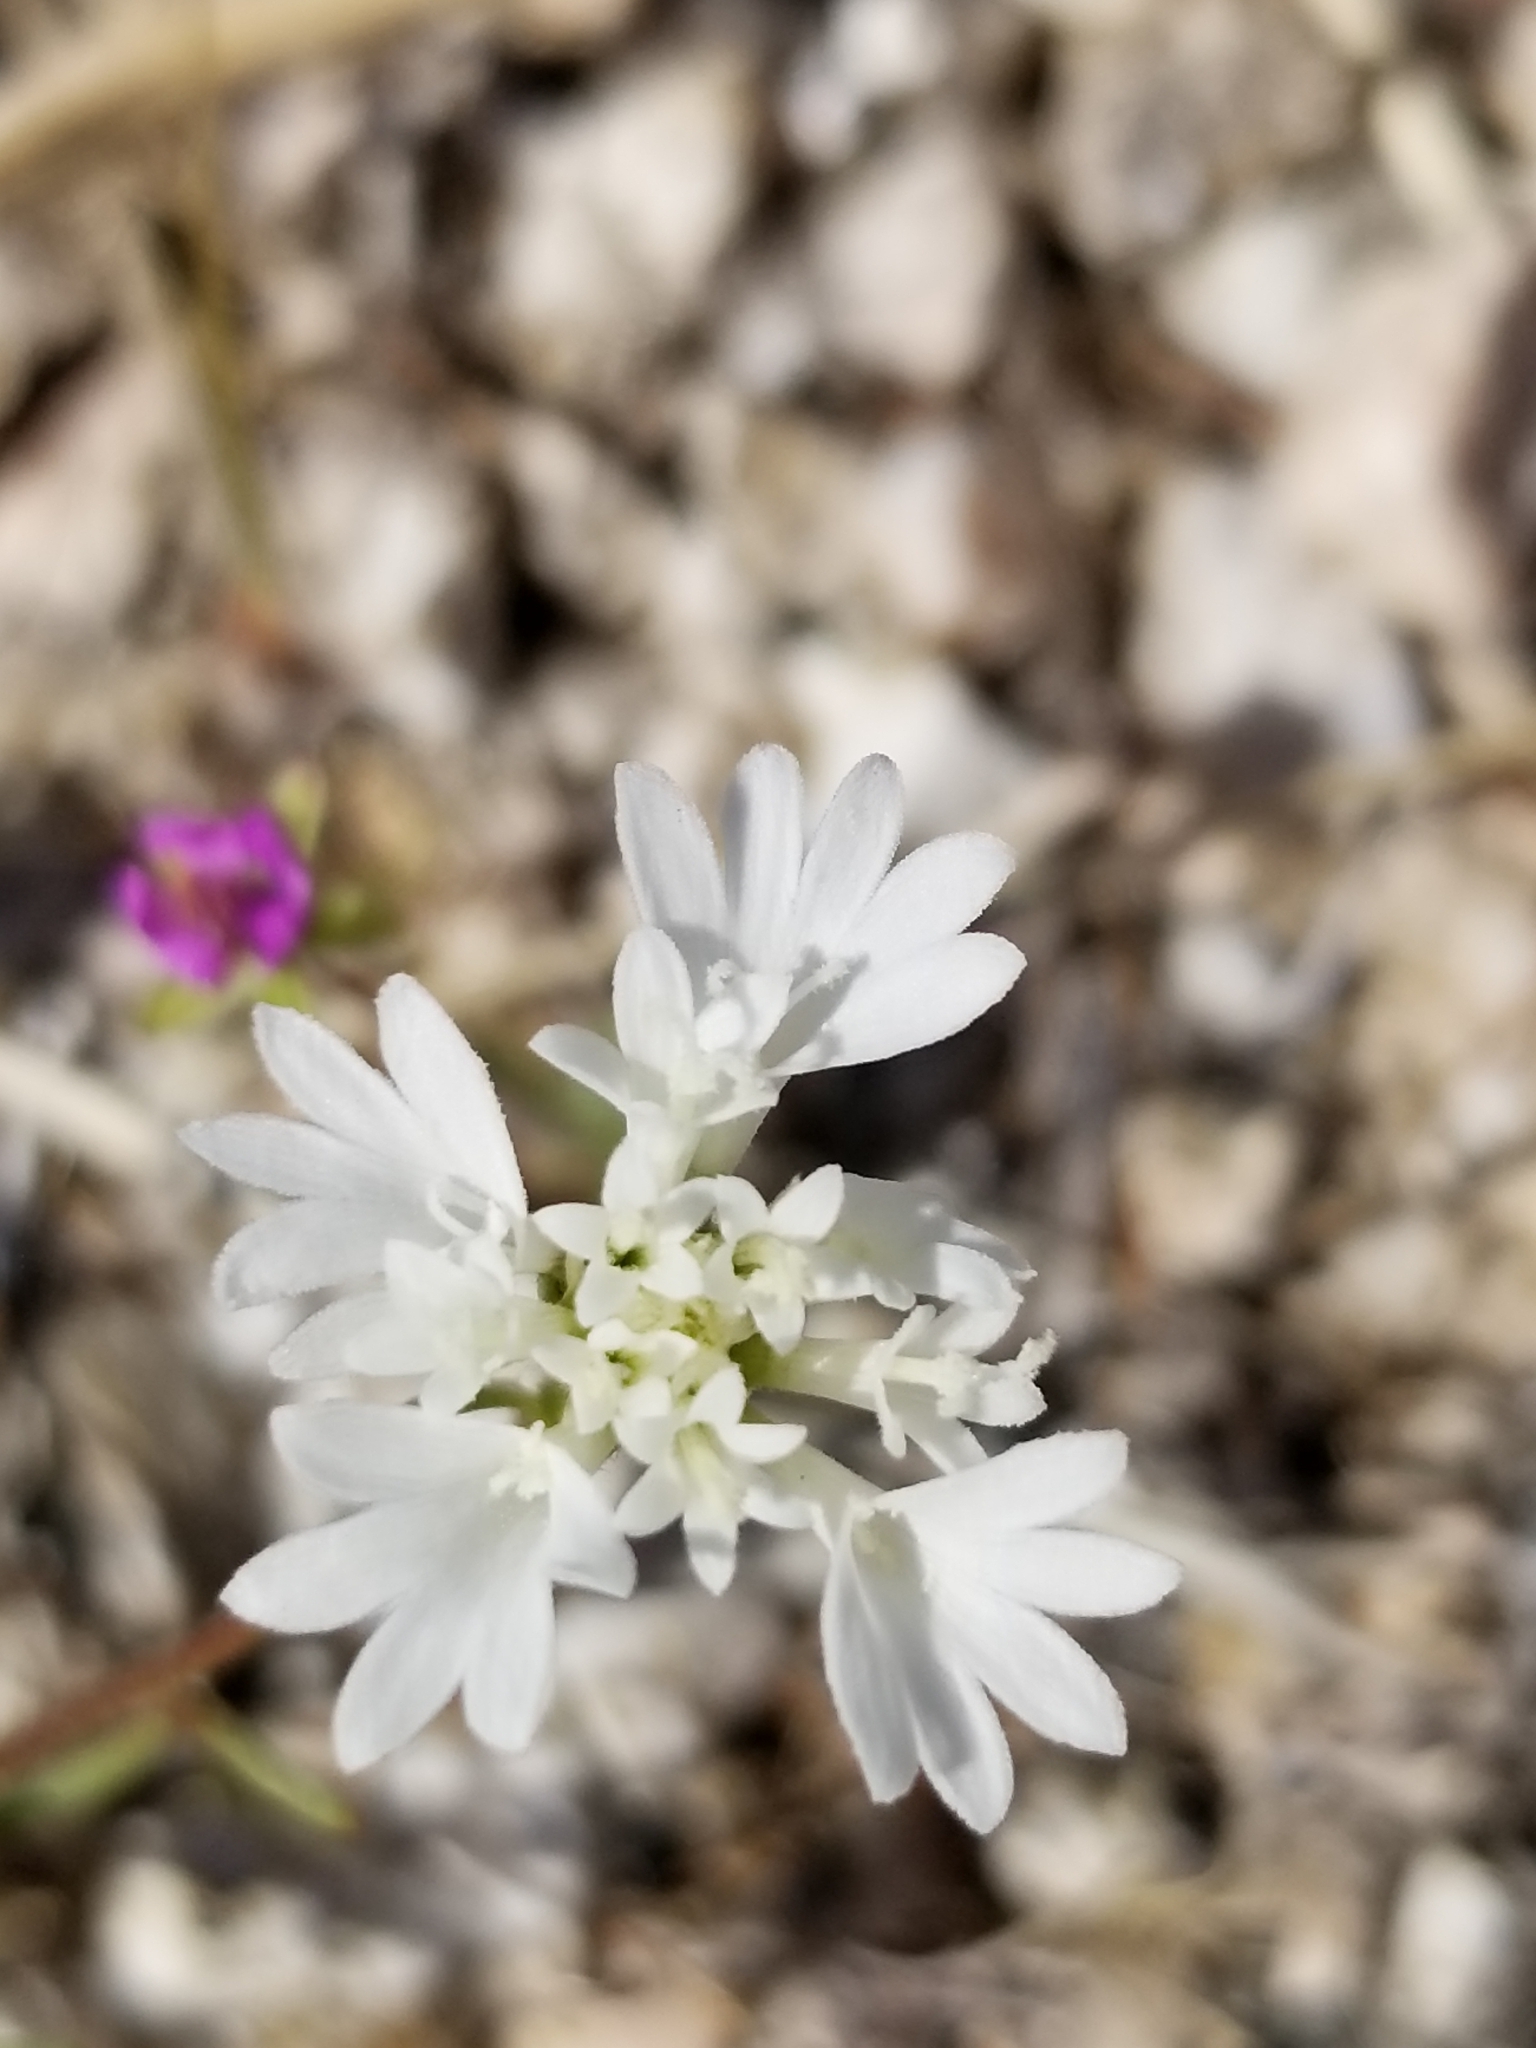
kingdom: Plantae
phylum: Tracheophyta
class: Magnoliopsida
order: Asterales
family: Asteraceae
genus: Chaenactis
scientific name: Chaenactis fremontii
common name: Fremont pincushion
